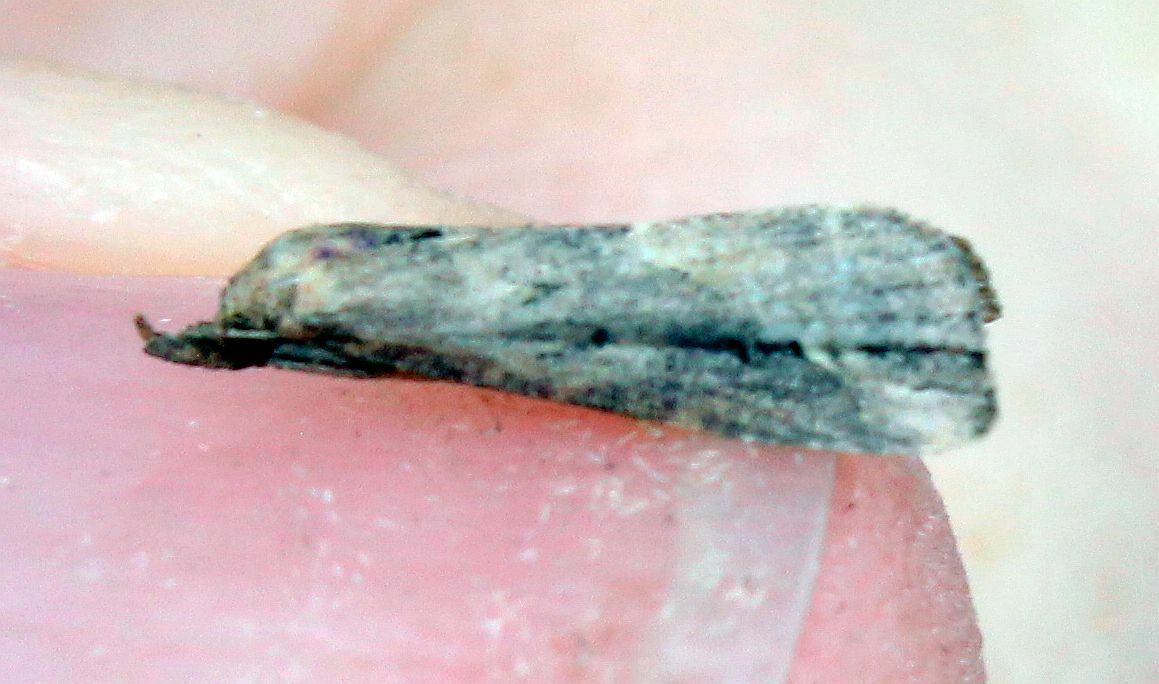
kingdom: Animalia
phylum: Arthropoda
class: Insecta
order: Lepidoptera
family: Erebidae
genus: Schrankia
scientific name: Schrankia costaestrigalis
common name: Pinion-streaked snout
